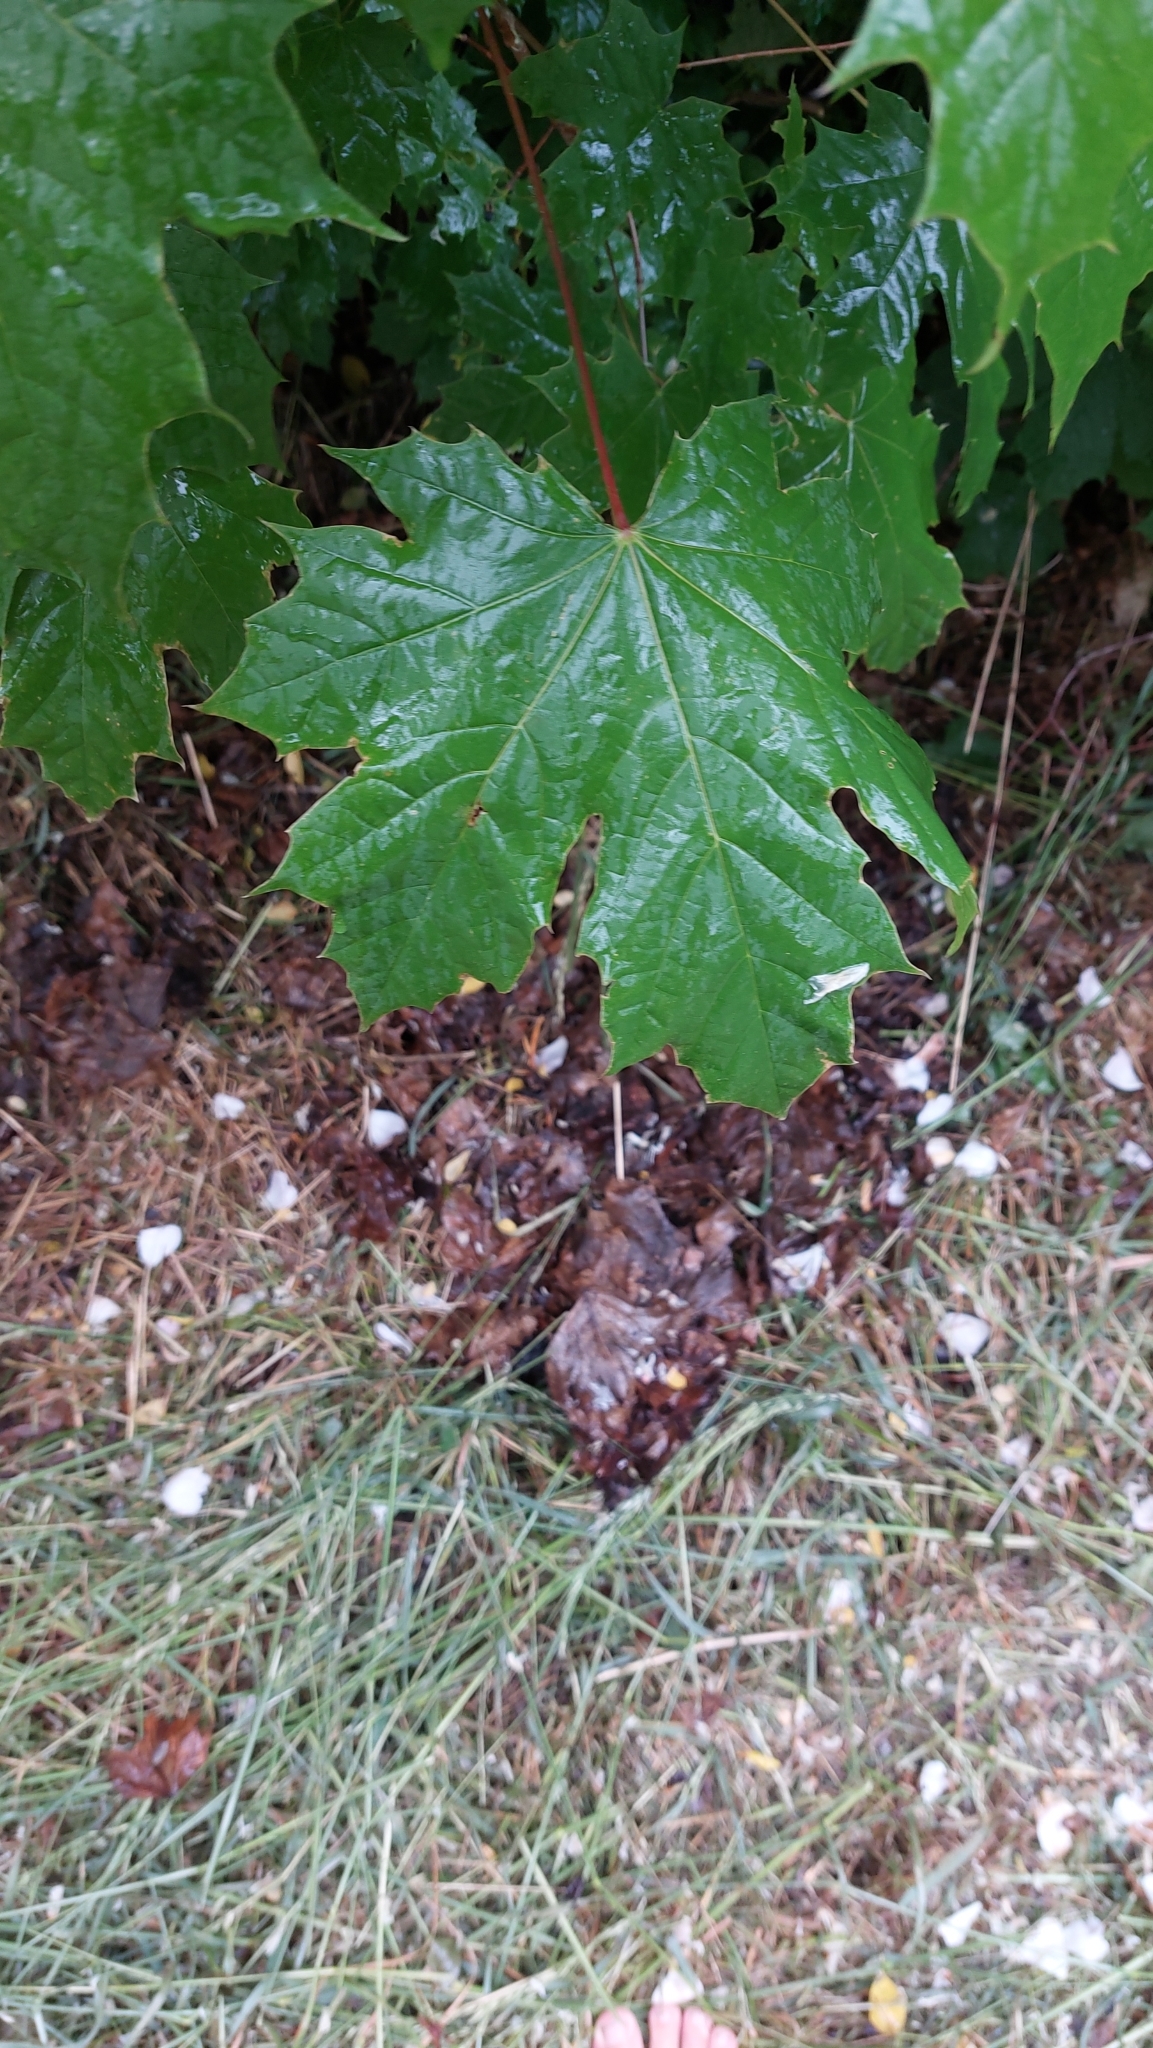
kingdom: Plantae
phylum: Tracheophyta
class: Magnoliopsida
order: Sapindales
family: Sapindaceae
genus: Acer
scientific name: Acer platanoides
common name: Norway maple
